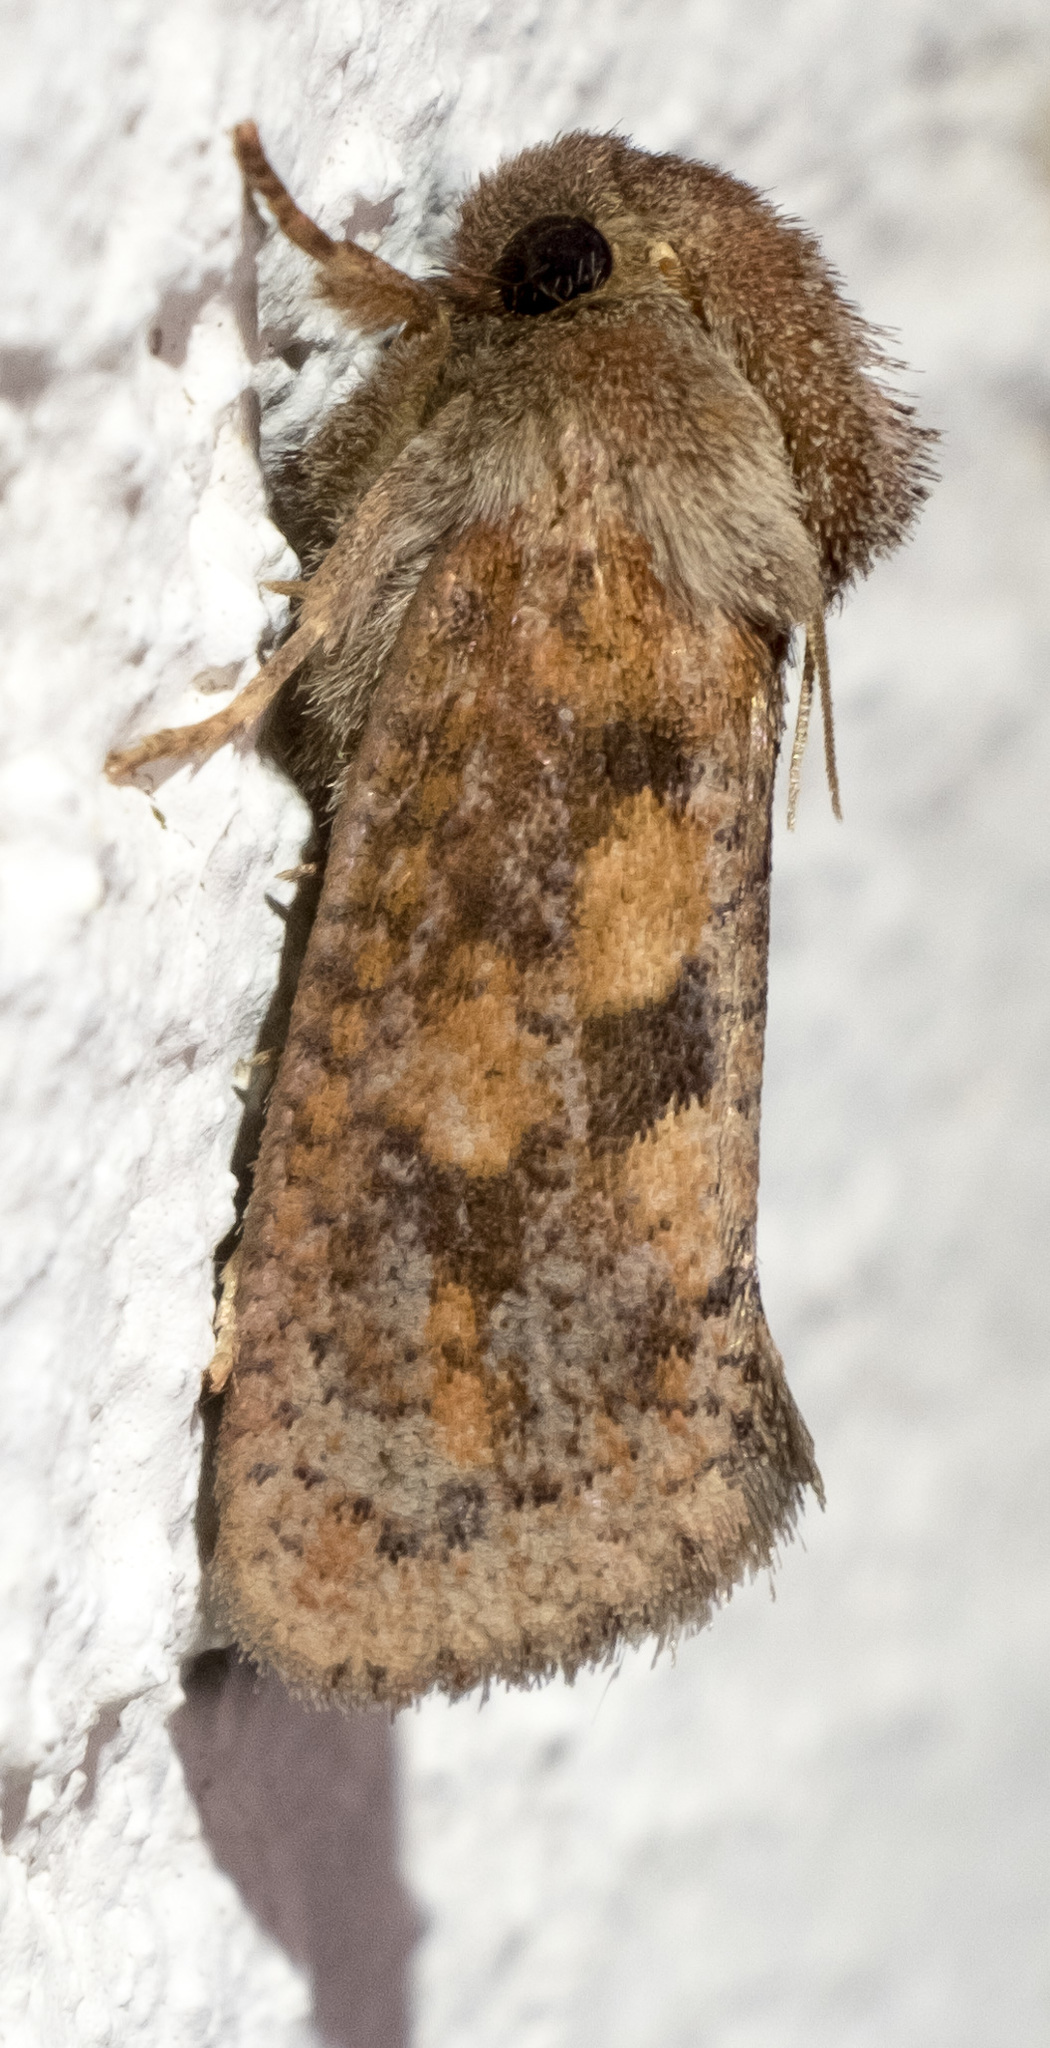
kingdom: Animalia
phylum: Arthropoda
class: Insecta
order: Lepidoptera
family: Tineidae
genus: Acrolophus
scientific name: Acrolophus plumifrontella
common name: Eastern grass tubeworm moth
